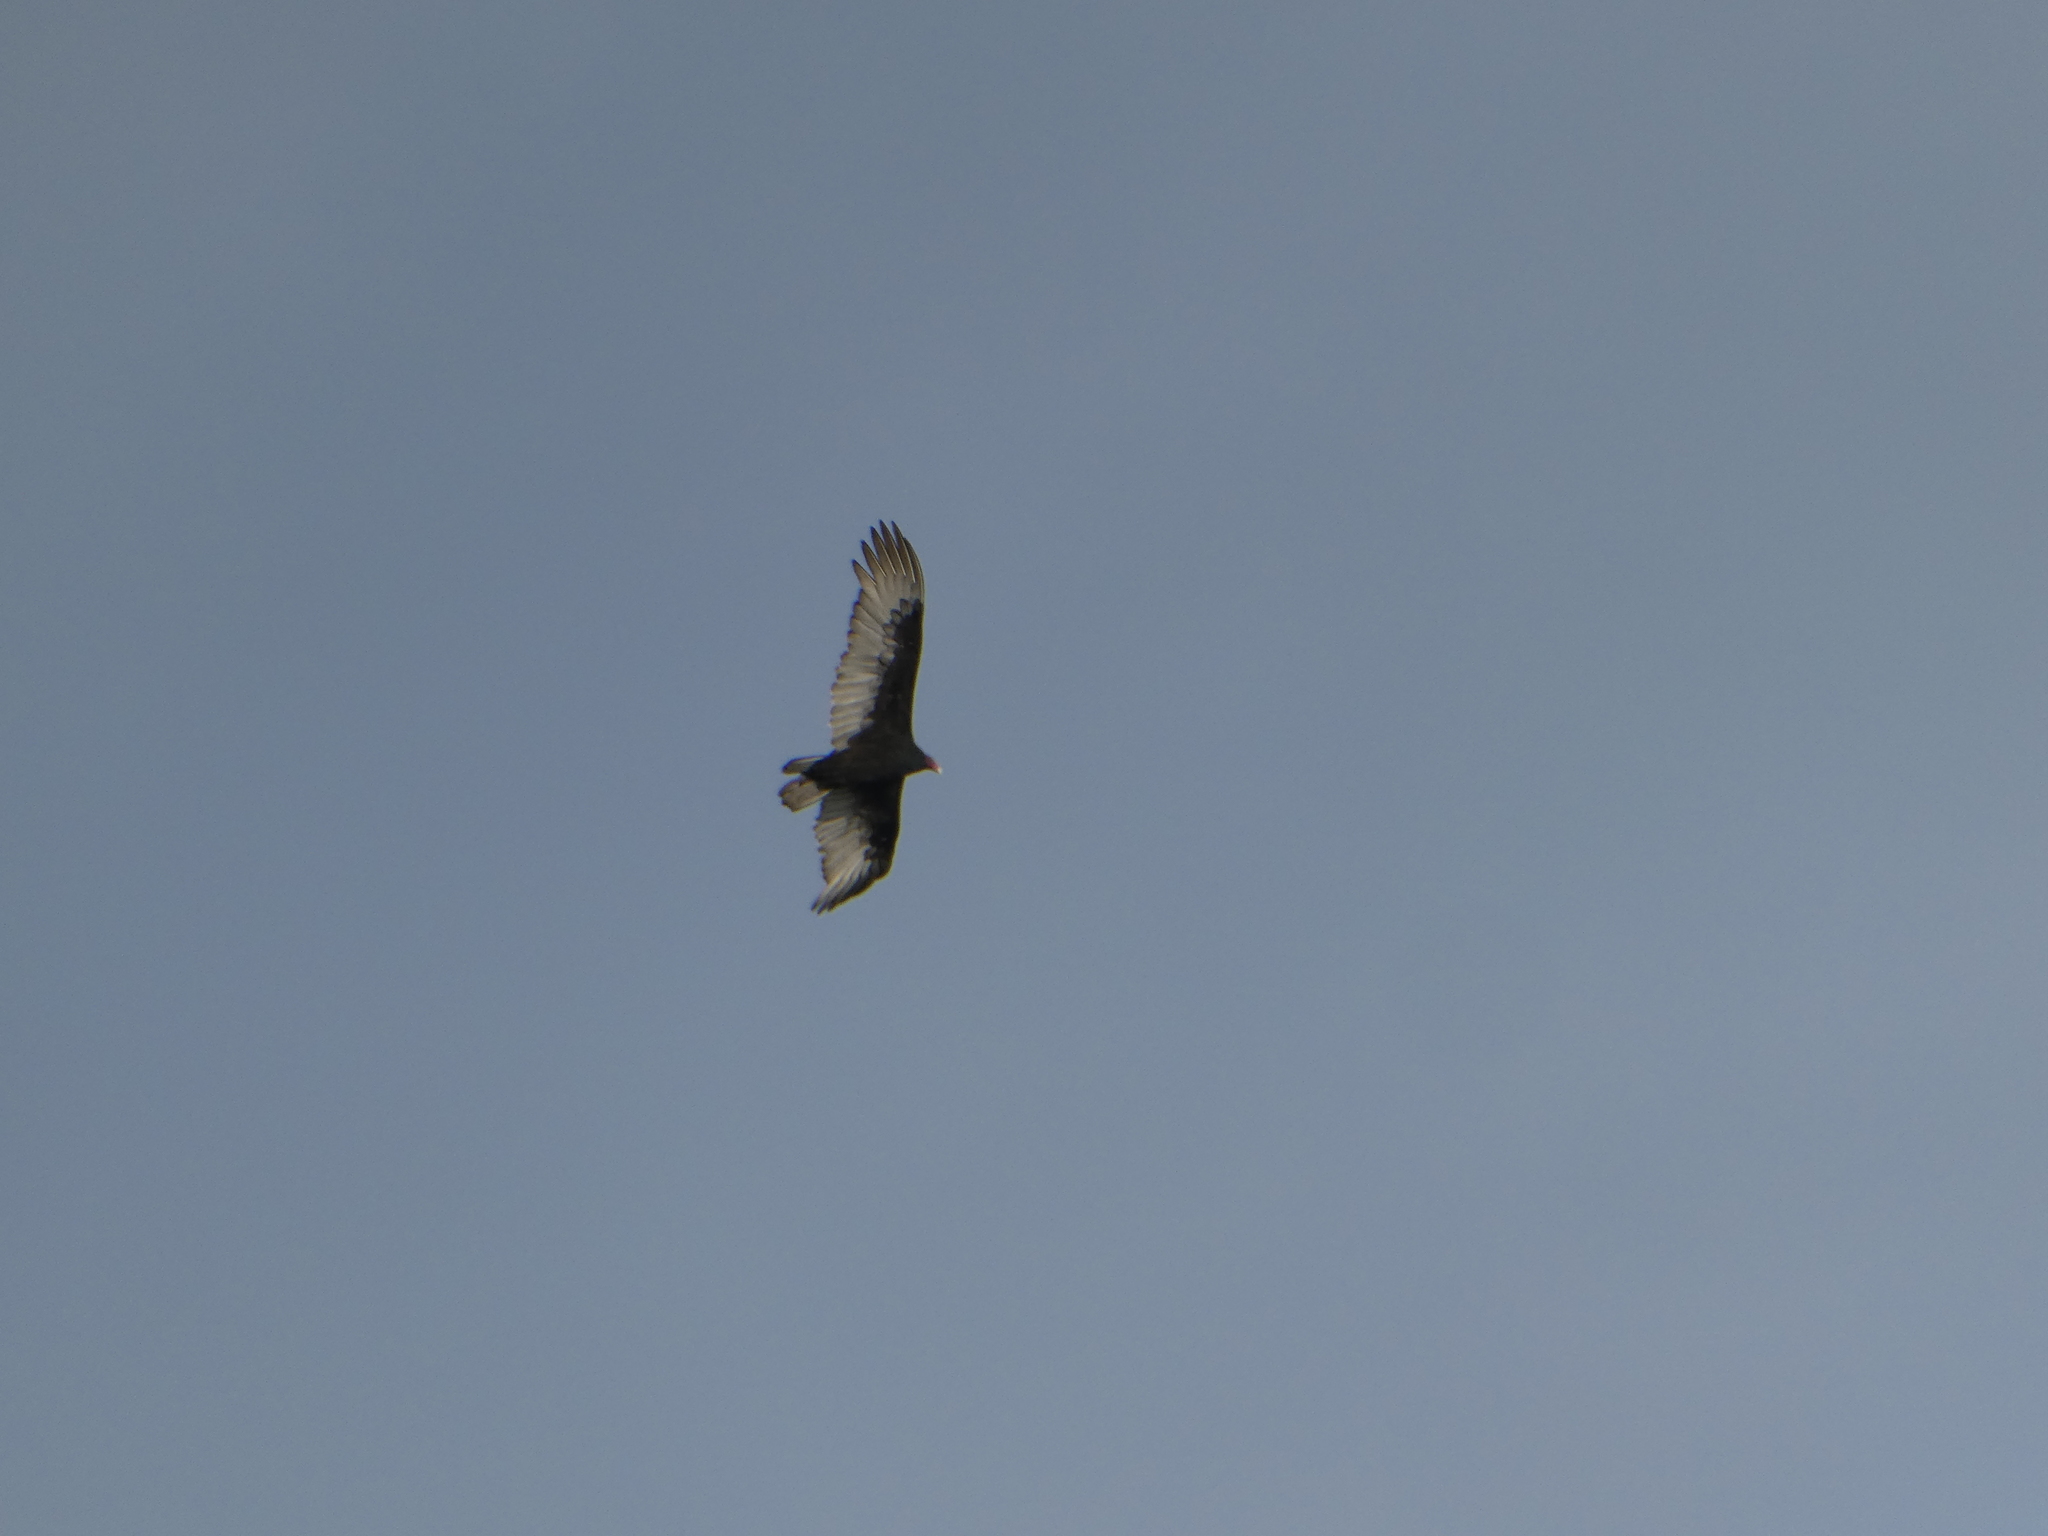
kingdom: Animalia
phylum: Chordata
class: Aves
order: Accipitriformes
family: Cathartidae
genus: Cathartes
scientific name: Cathartes aura
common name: Turkey vulture
